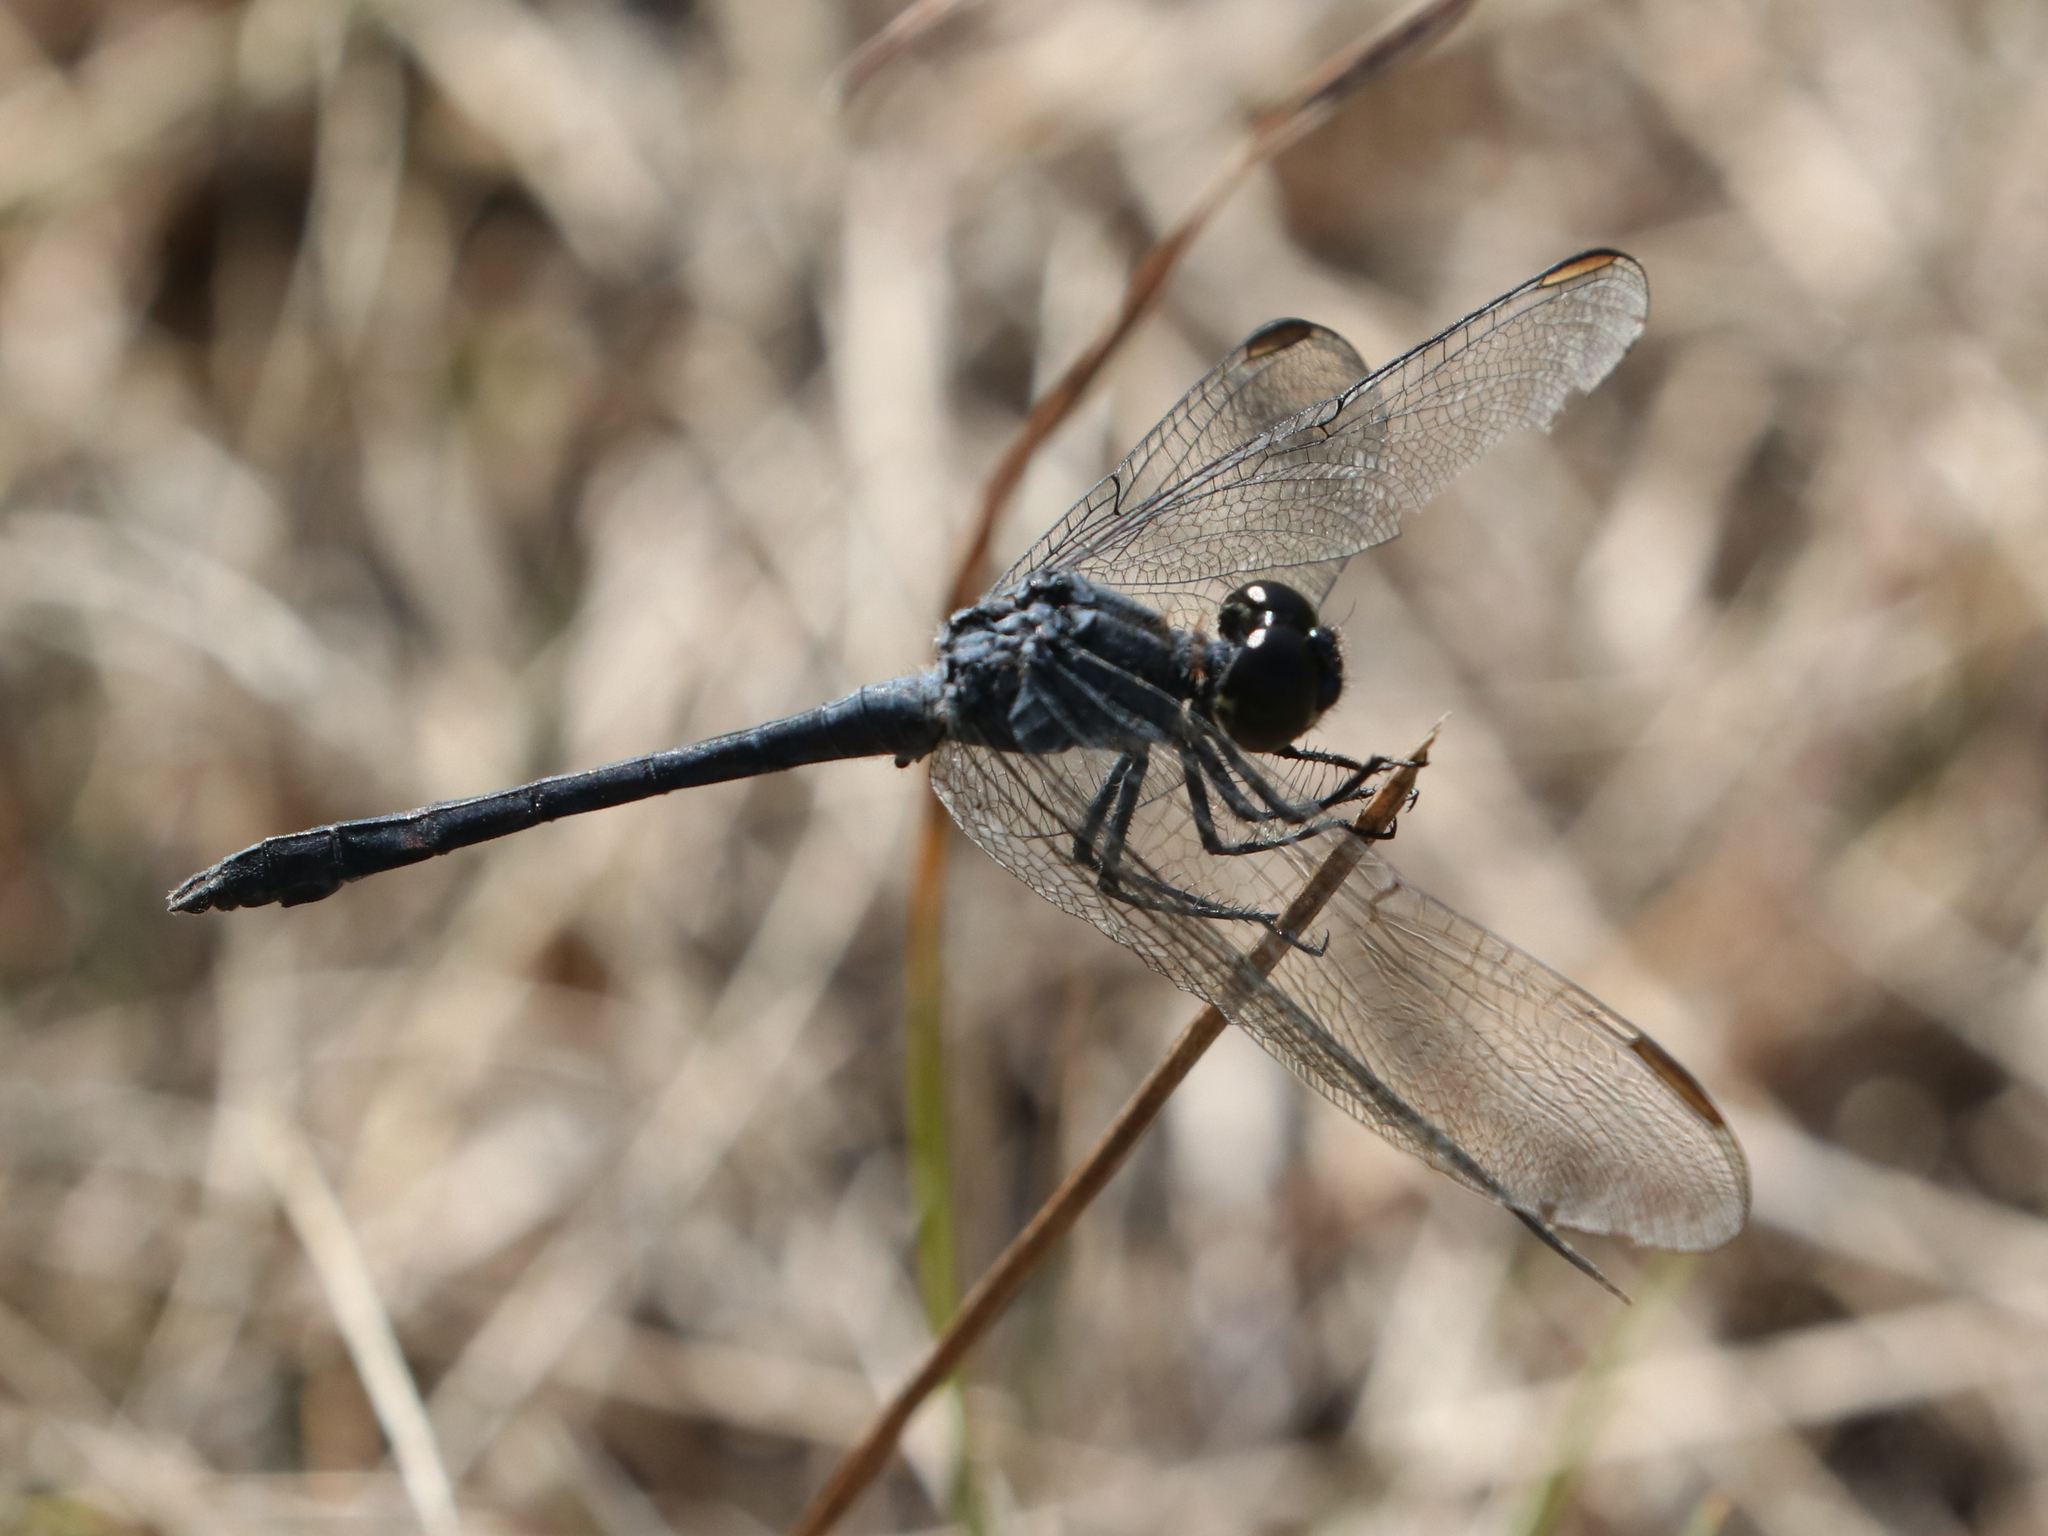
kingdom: Animalia
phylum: Arthropoda
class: Insecta
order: Odonata
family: Libellulidae
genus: Erythrodiplax
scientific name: Erythrodiplax berenice
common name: Seaside dragonlet
